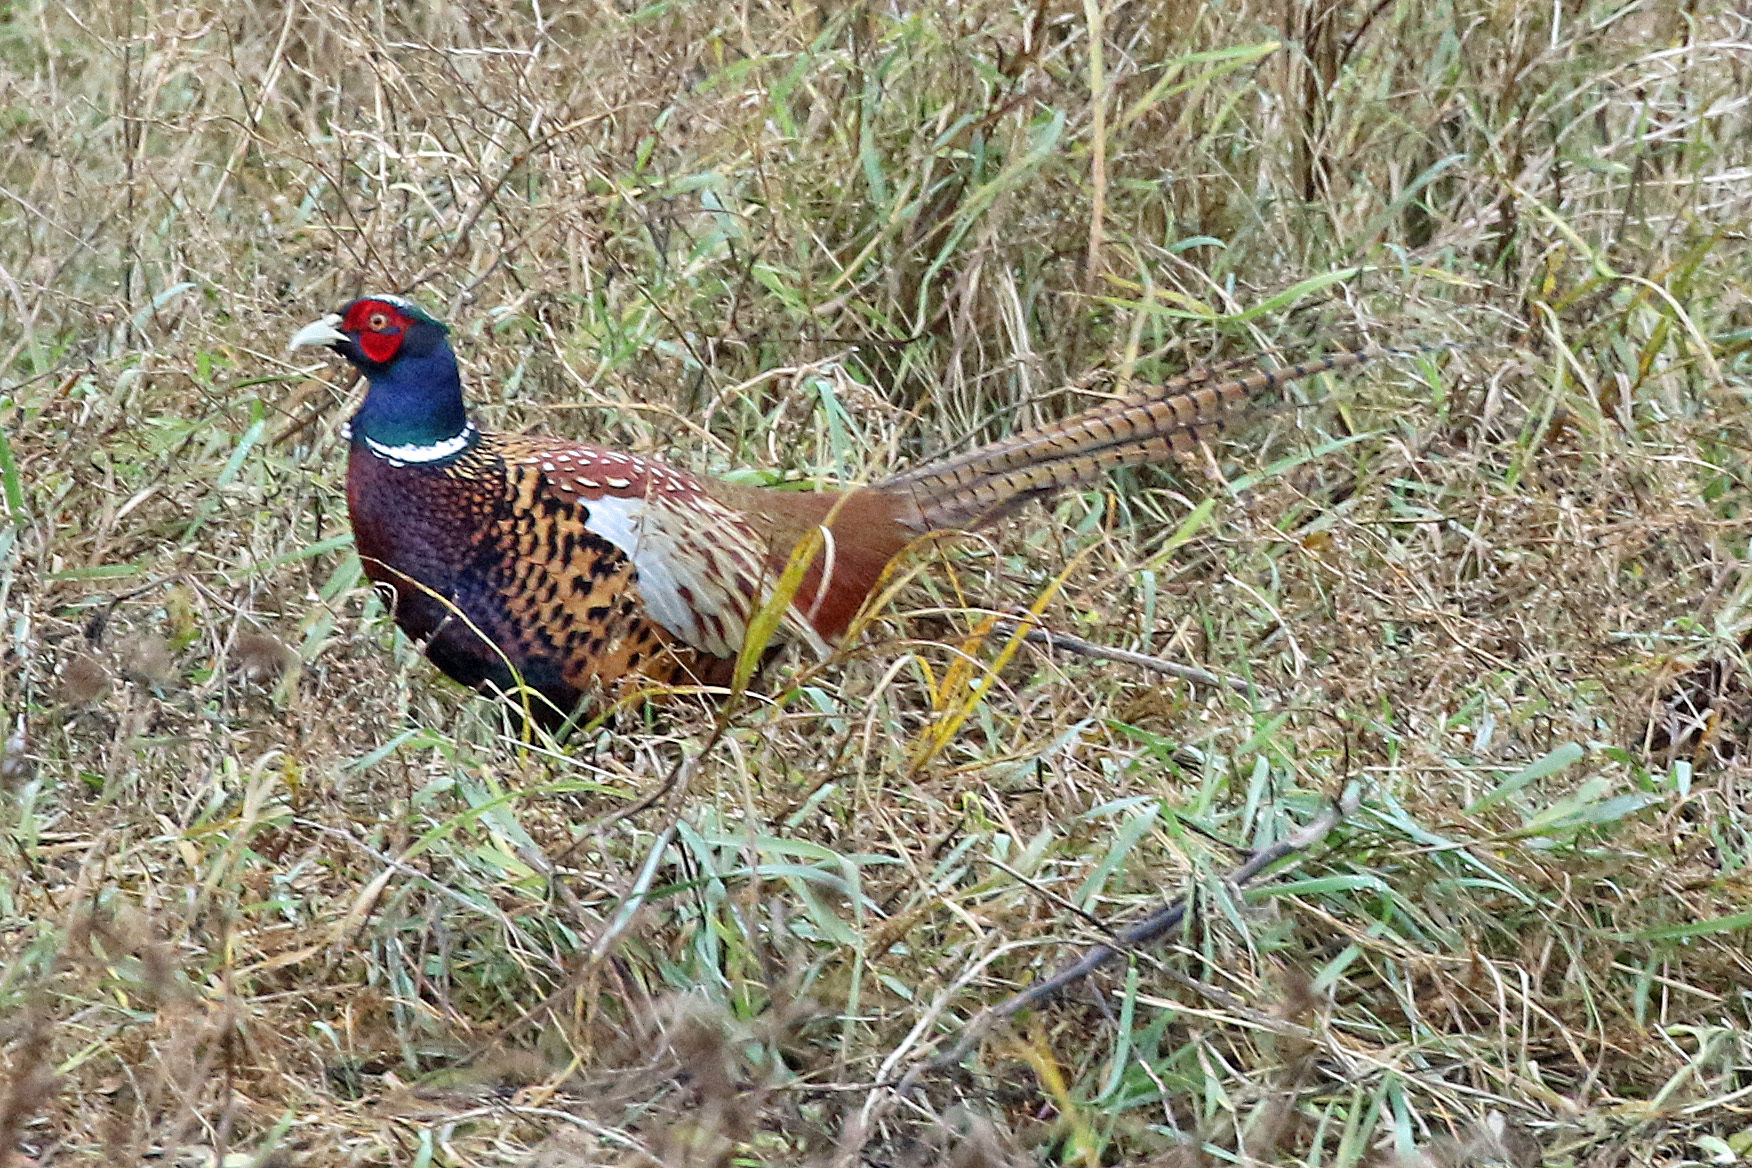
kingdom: Animalia
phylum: Chordata
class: Aves
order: Galliformes
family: Phasianidae
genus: Phasianus
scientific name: Phasianus colchicus
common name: Common pheasant
